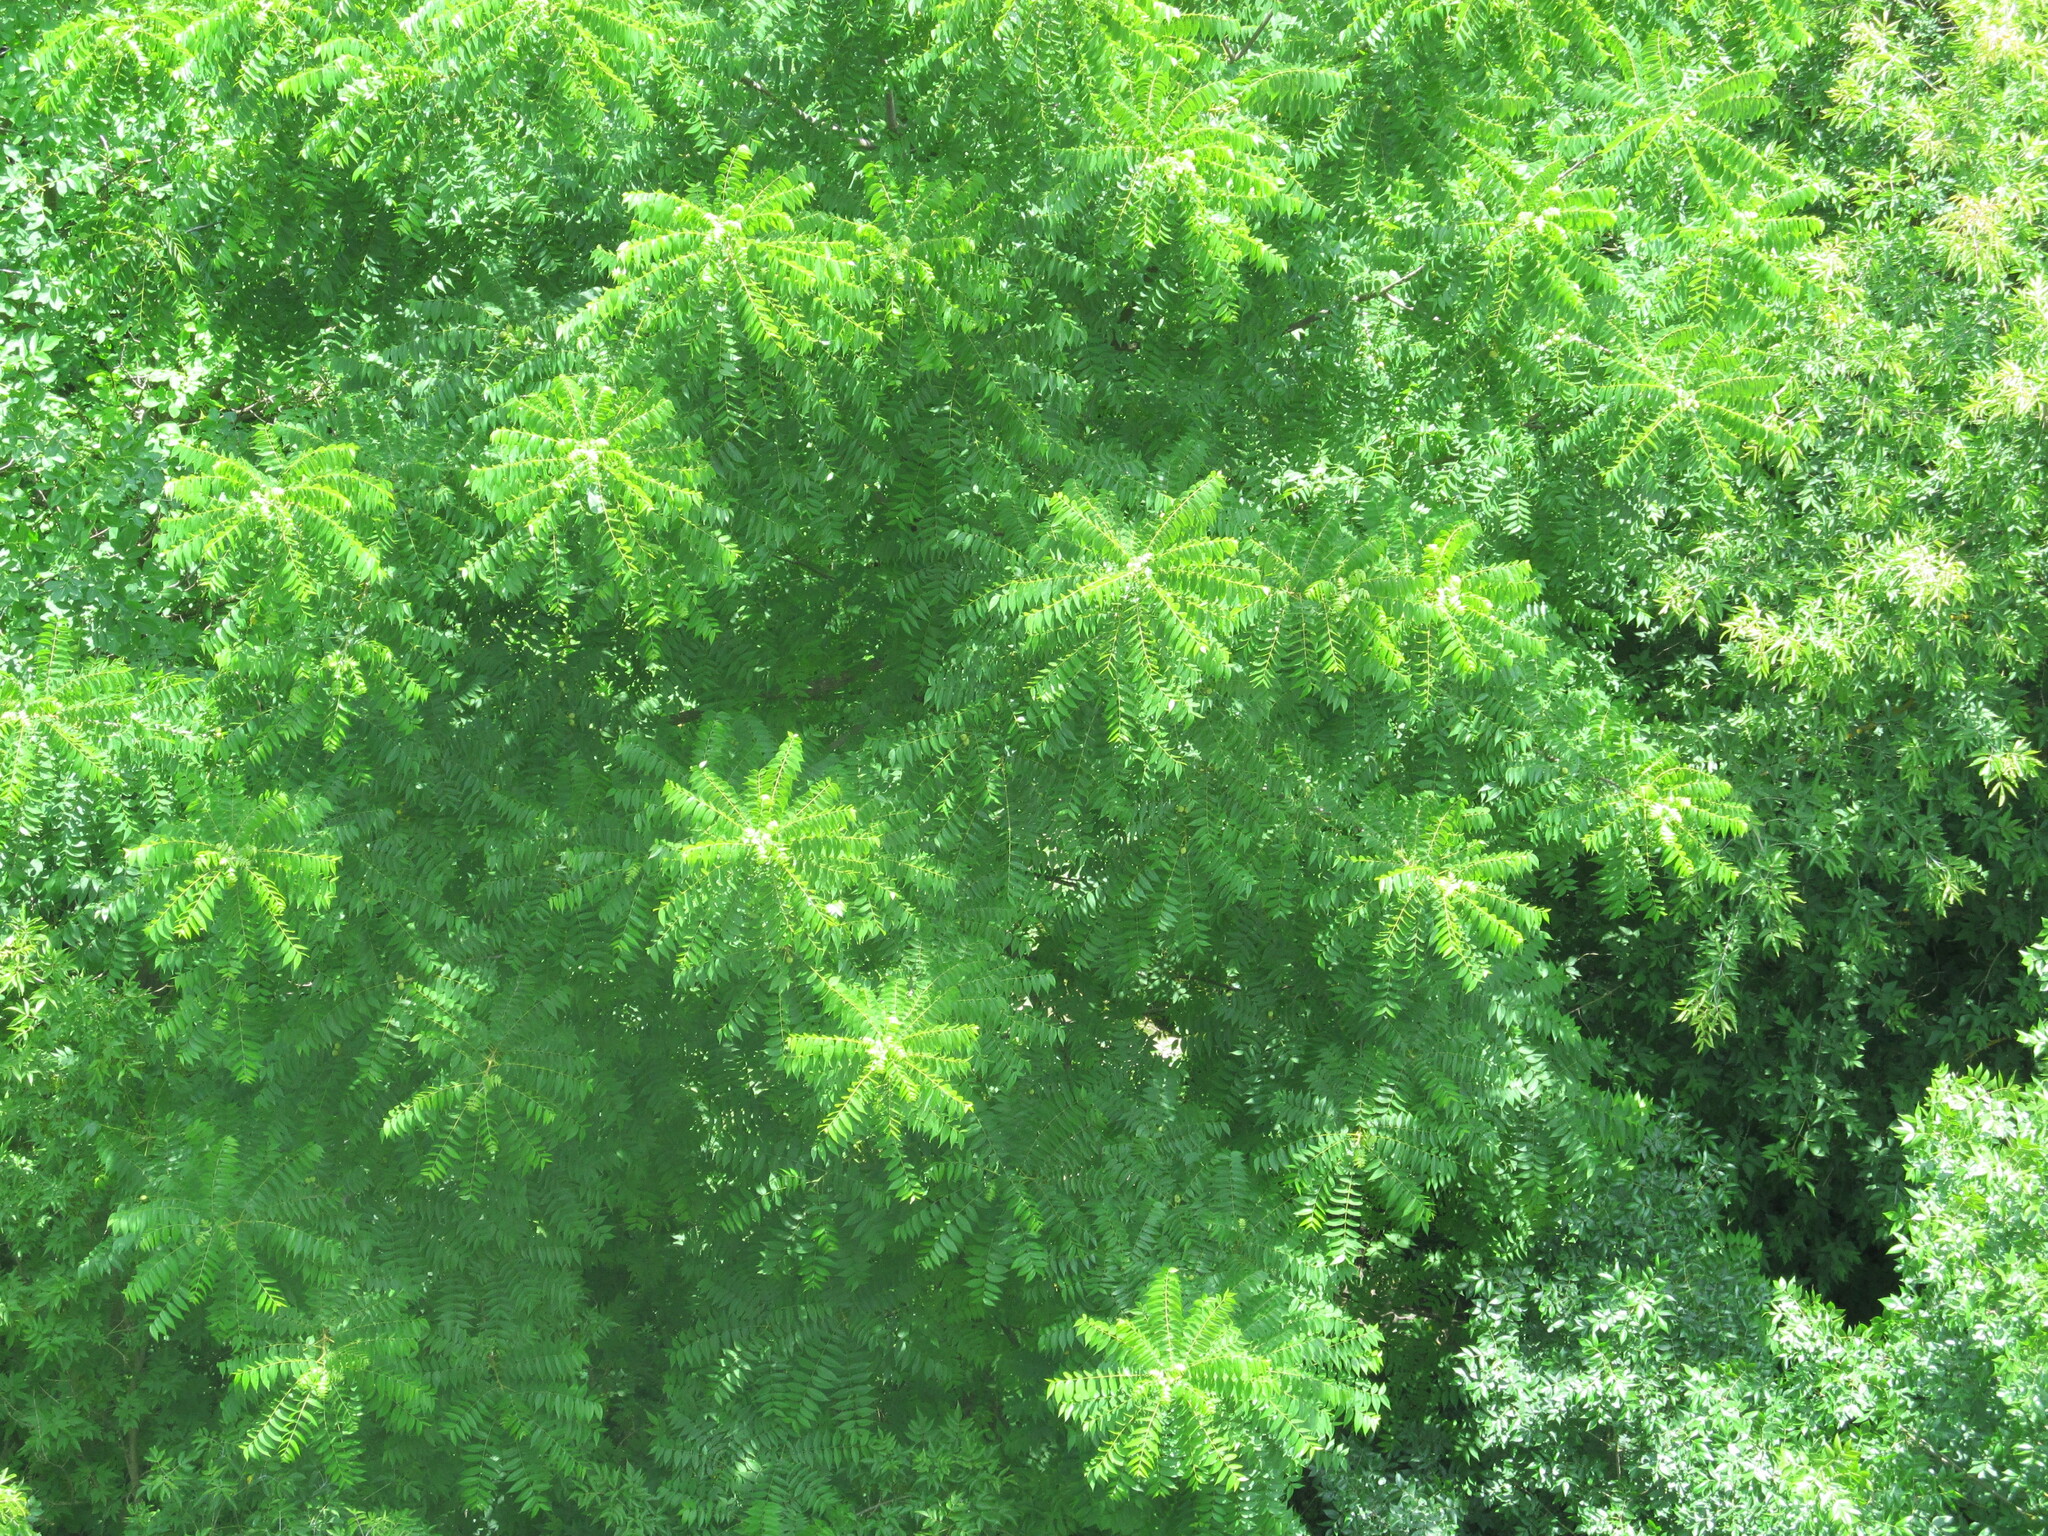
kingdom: Plantae
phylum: Tracheophyta
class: Magnoliopsida
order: Sapindales
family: Simaroubaceae
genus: Ailanthus
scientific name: Ailanthus altissima
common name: Tree-of-heaven
